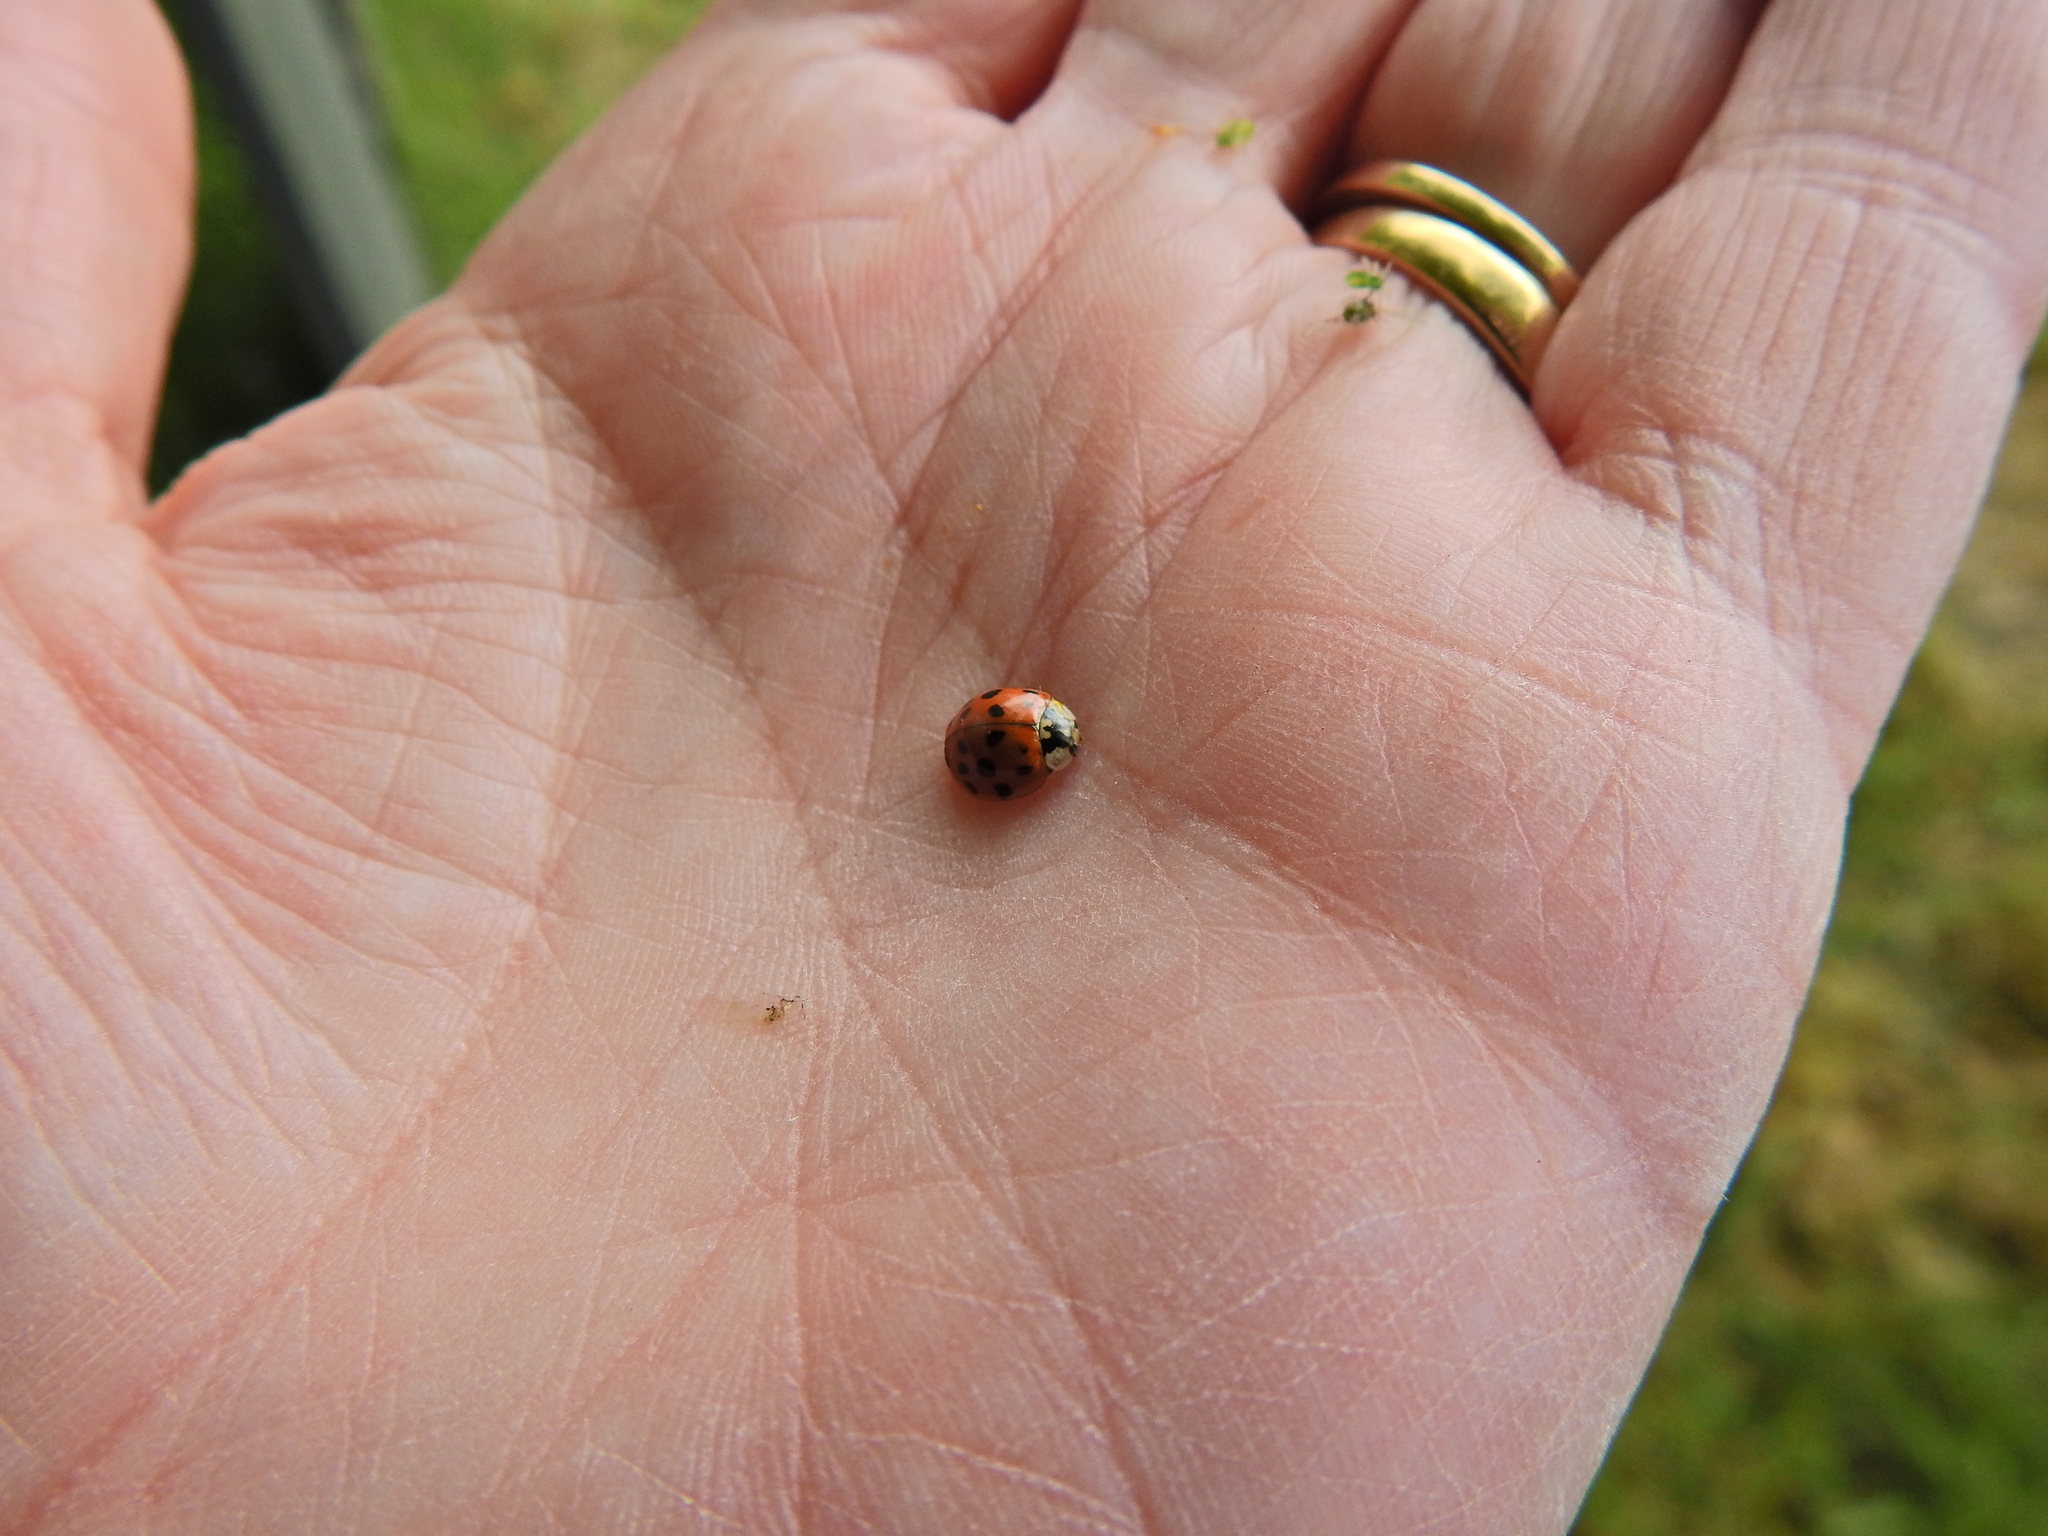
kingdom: Animalia
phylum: Arthropoda
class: Insecta
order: Coleoptera
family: Coccinellidae
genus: Harmonia
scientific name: Harmonia axyridis
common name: Harlequin ladybird
